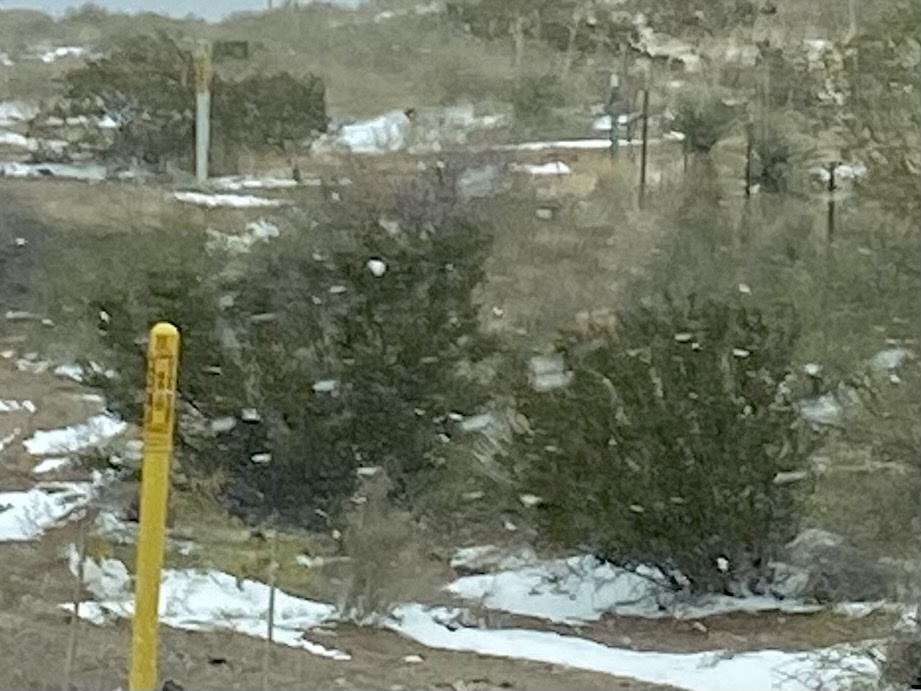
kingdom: Plantae
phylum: Tracheophyta
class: Magnoliopsida
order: Zygophyllales
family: Zygophyllaceae
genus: Larrea
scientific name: Larrea tridentata
